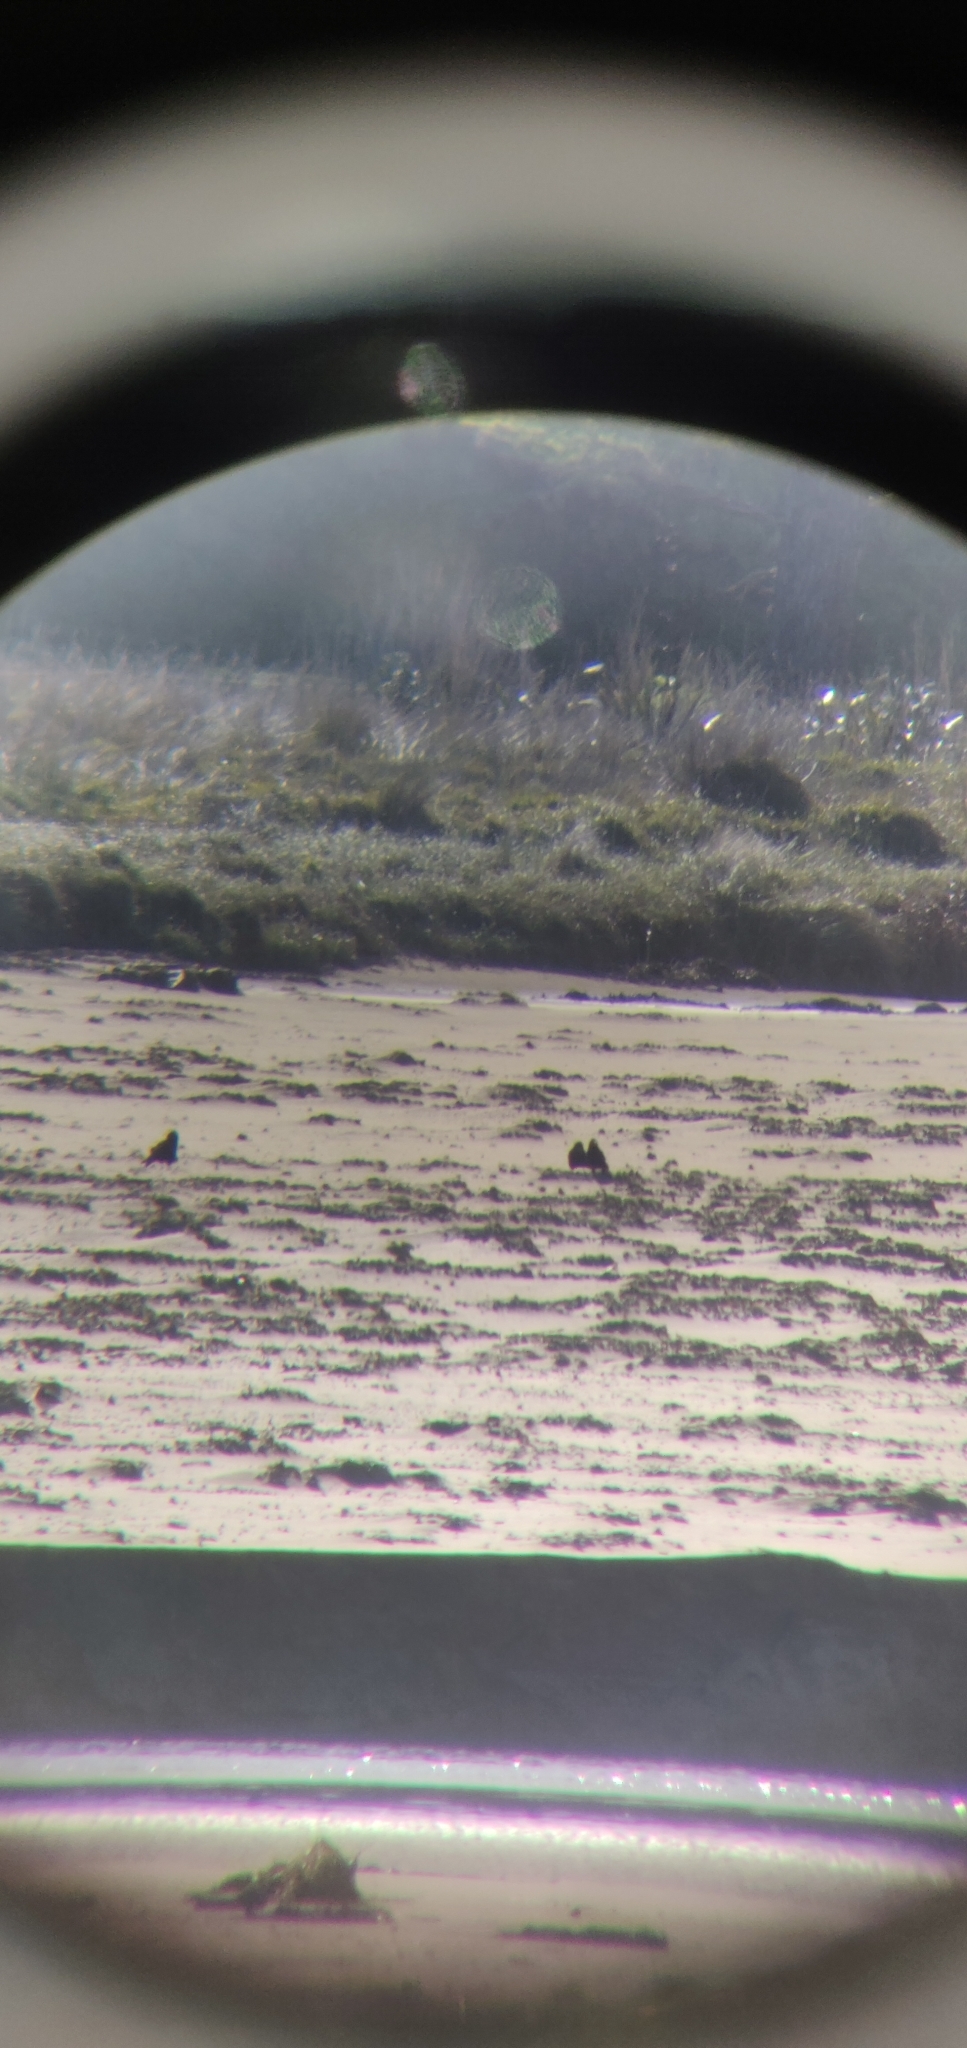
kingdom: Animalia
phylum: Chordata
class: Aves
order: Passeriformes
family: Corvidae
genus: Corvus
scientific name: Corvus frugilegus
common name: Rook
